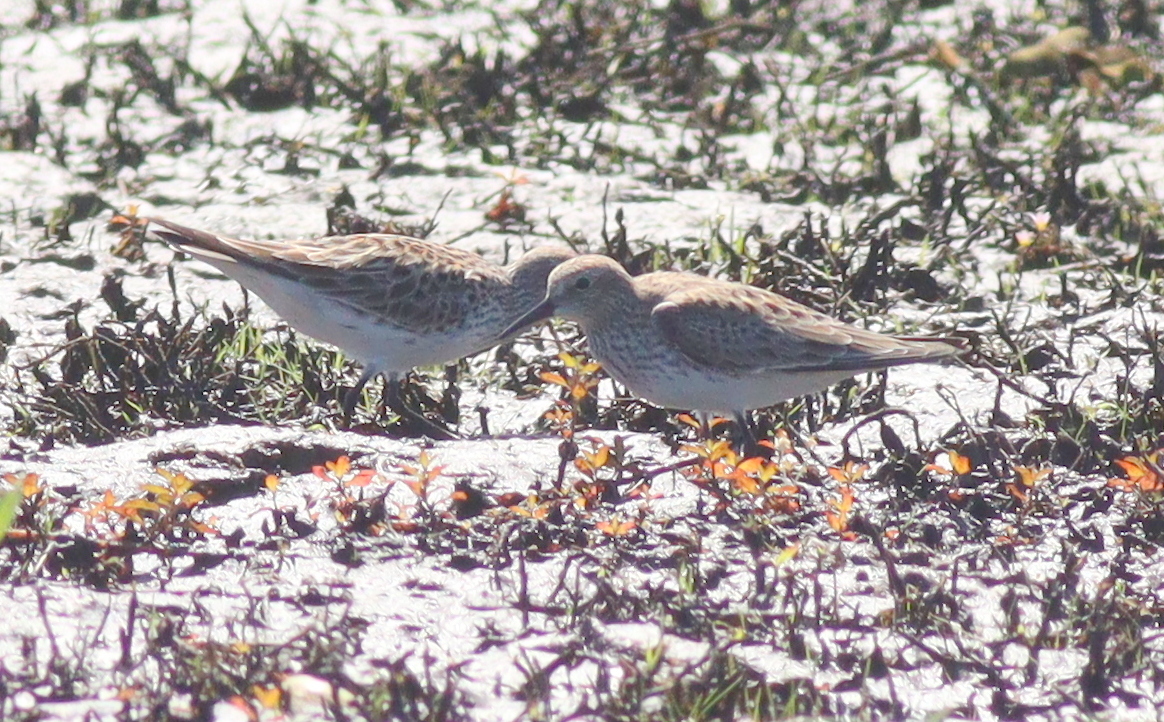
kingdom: Animalia
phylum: Chordata
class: Aves
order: Charadriiformes
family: Scolopacidae
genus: Calidris
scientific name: Calidris fuscicollis
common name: White-rumped sandpiper
